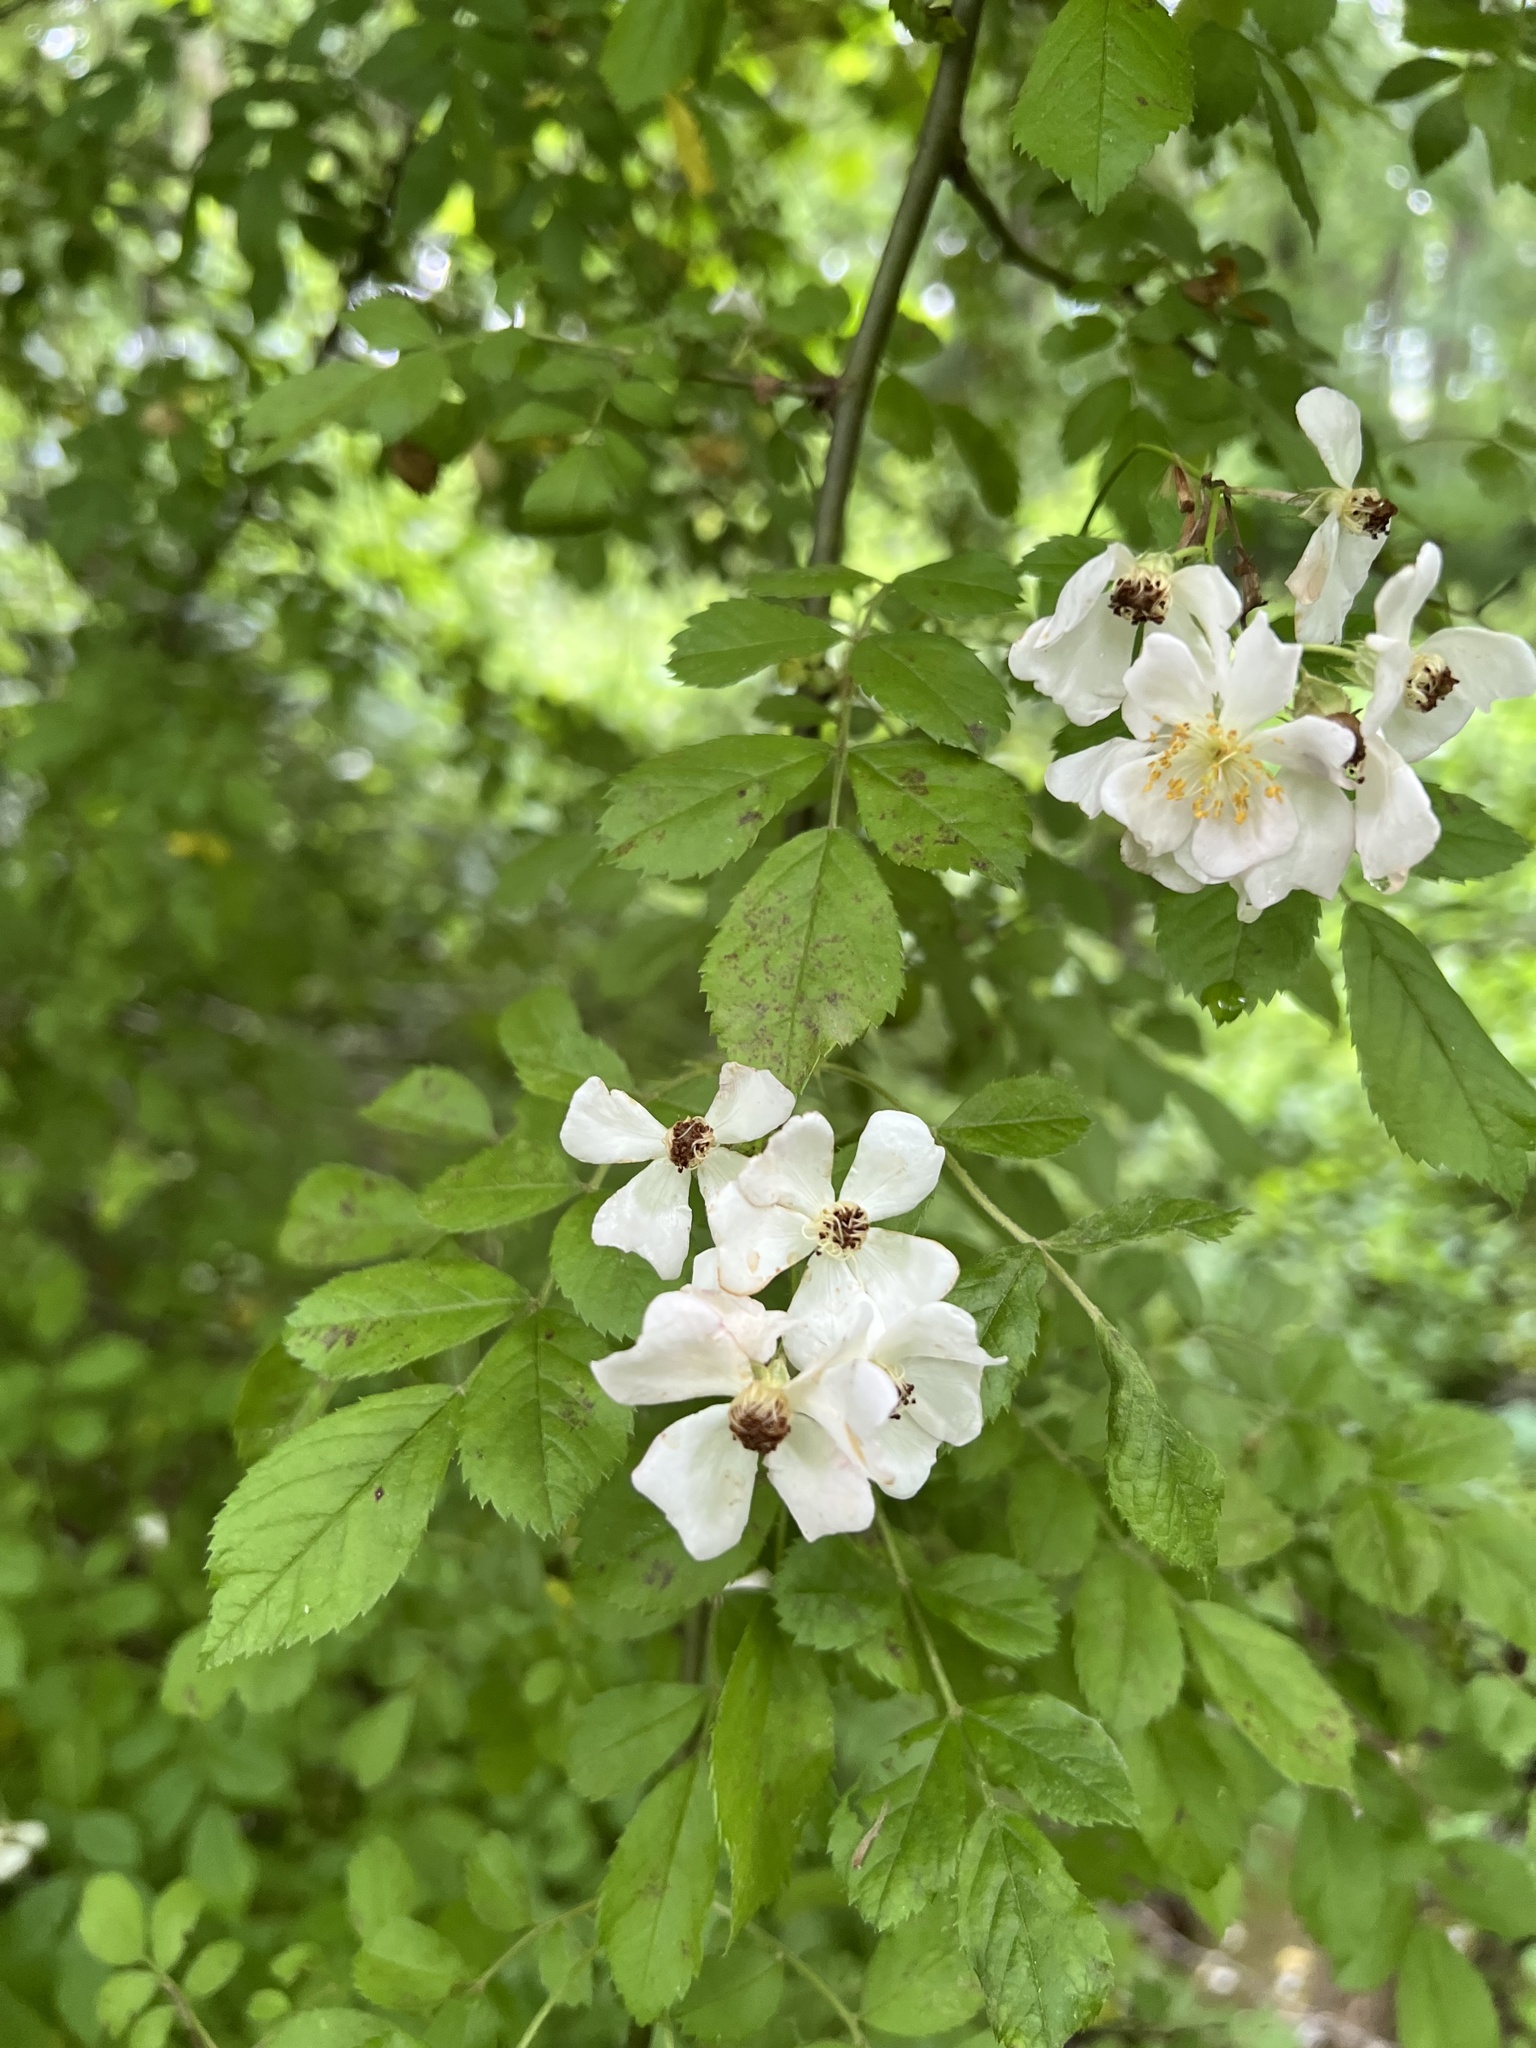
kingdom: Plantae
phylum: Tracheophyta
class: Magnoliopsida
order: Rosales
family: Rosaceae
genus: Rosa
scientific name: Rosa multiflora
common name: Multiflora rose
